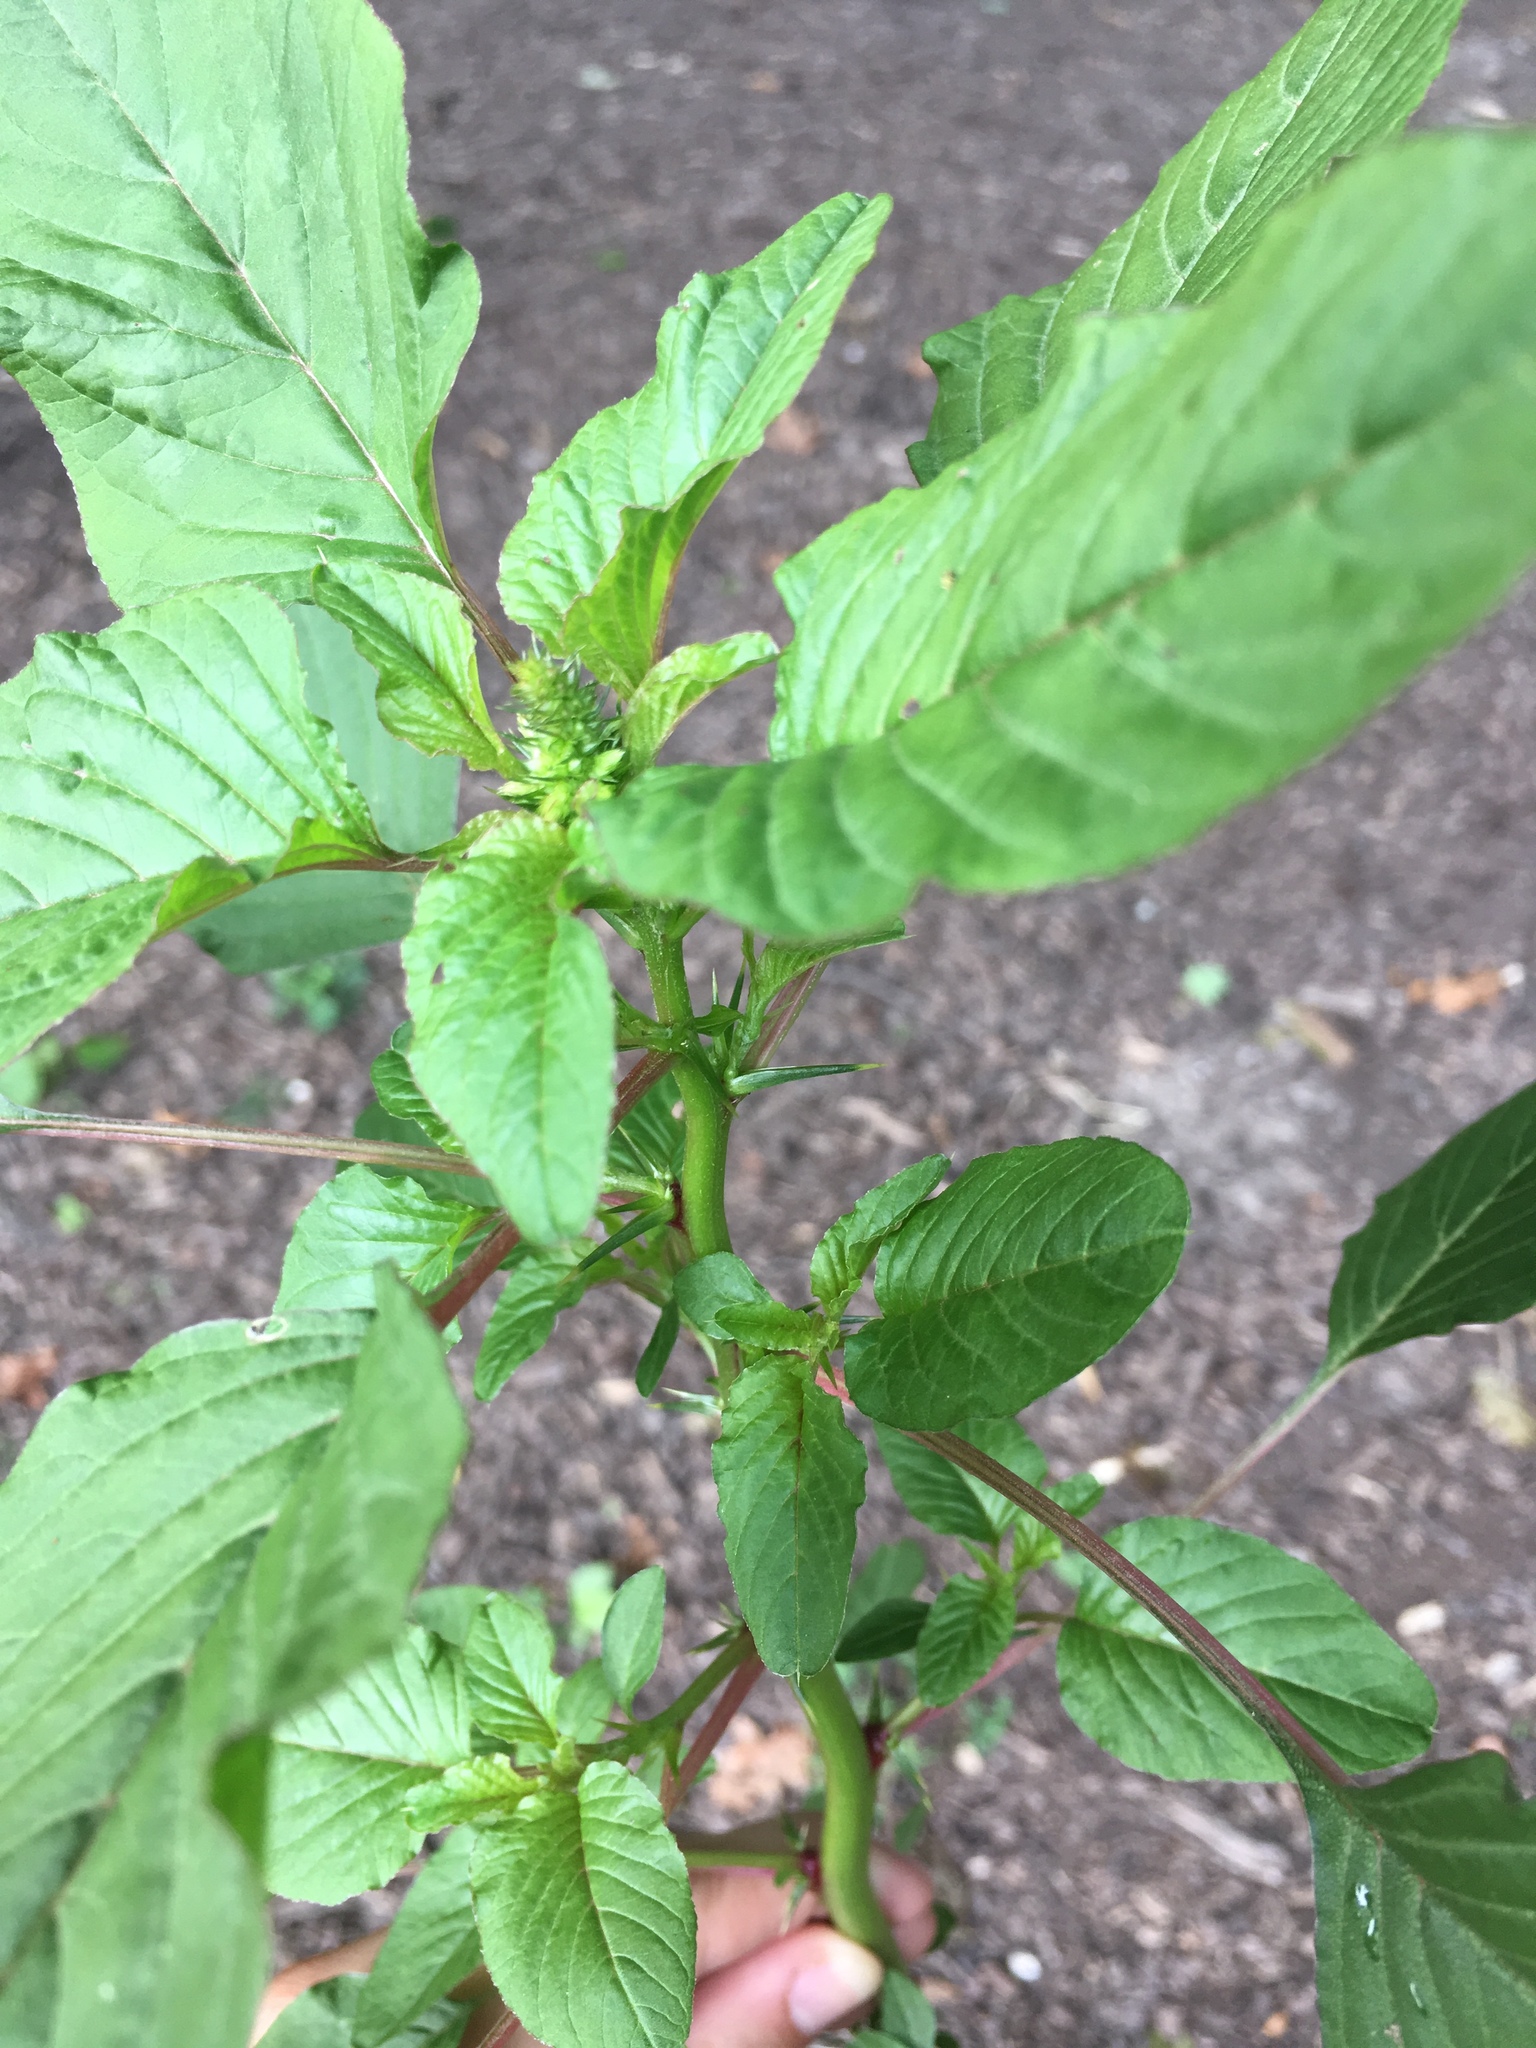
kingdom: Plantae
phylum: Tracheophyta
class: Magnoliopsida
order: Caryophyllales
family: Amaranthaceae
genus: Amaranthus
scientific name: Amaranthus spinosus
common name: Spiny amaranth
